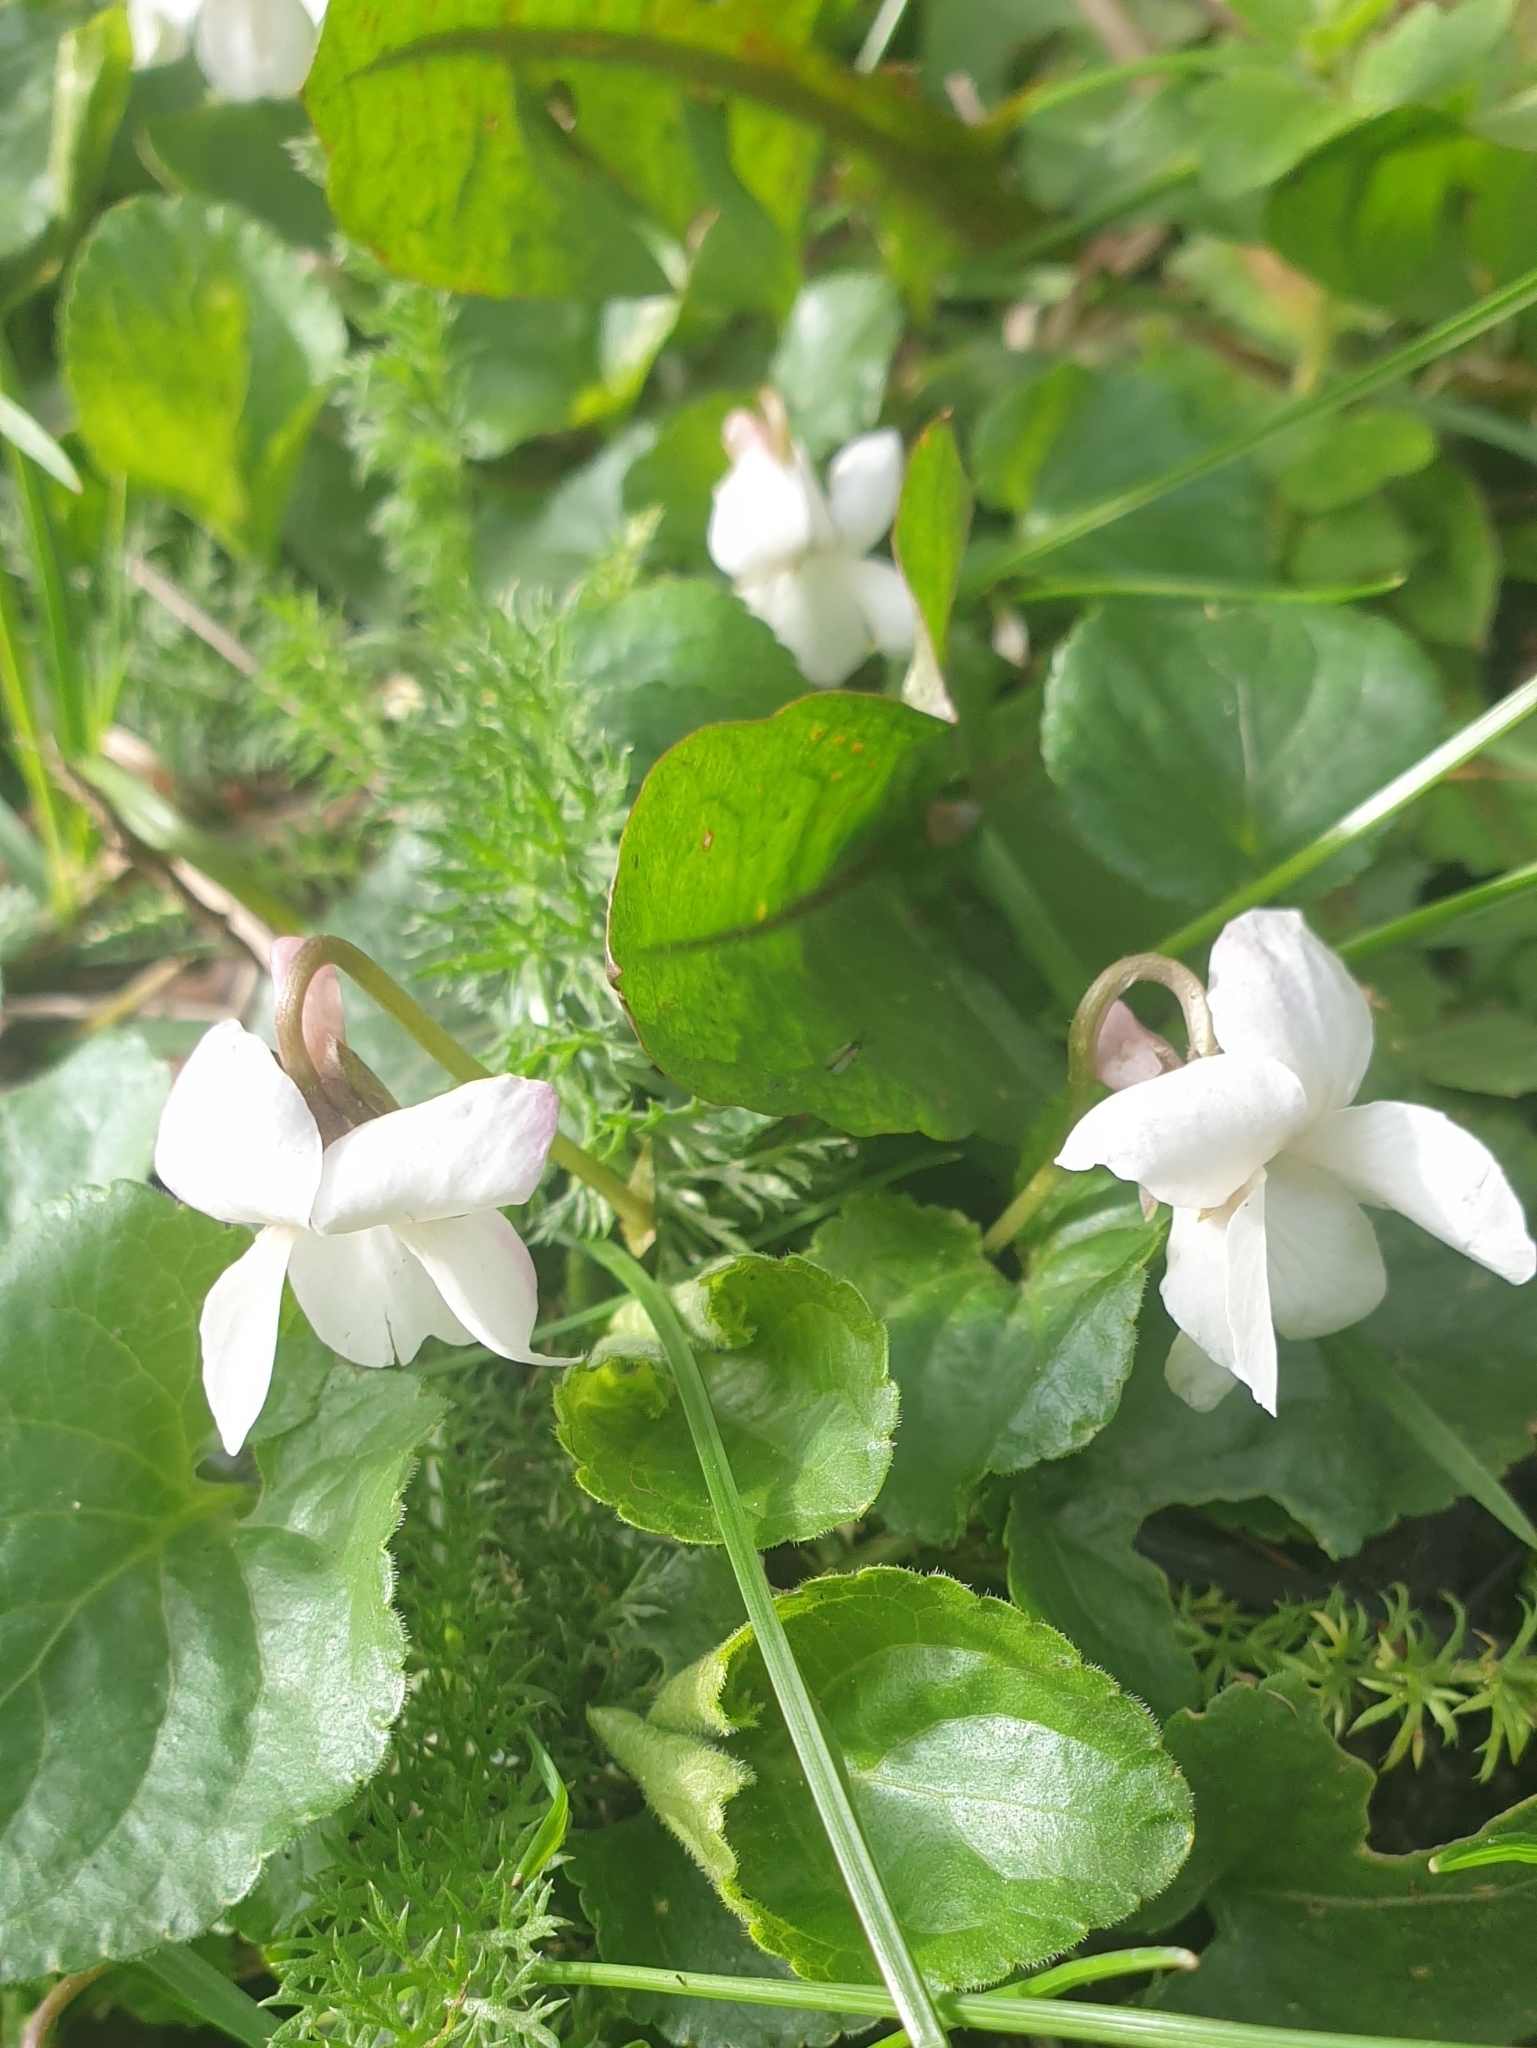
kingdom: Plantae
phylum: Tracheophyta
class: Magnoliopsida
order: Malpighiales
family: Violaceae
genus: Viola
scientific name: Viola odorata
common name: Sweet violet
